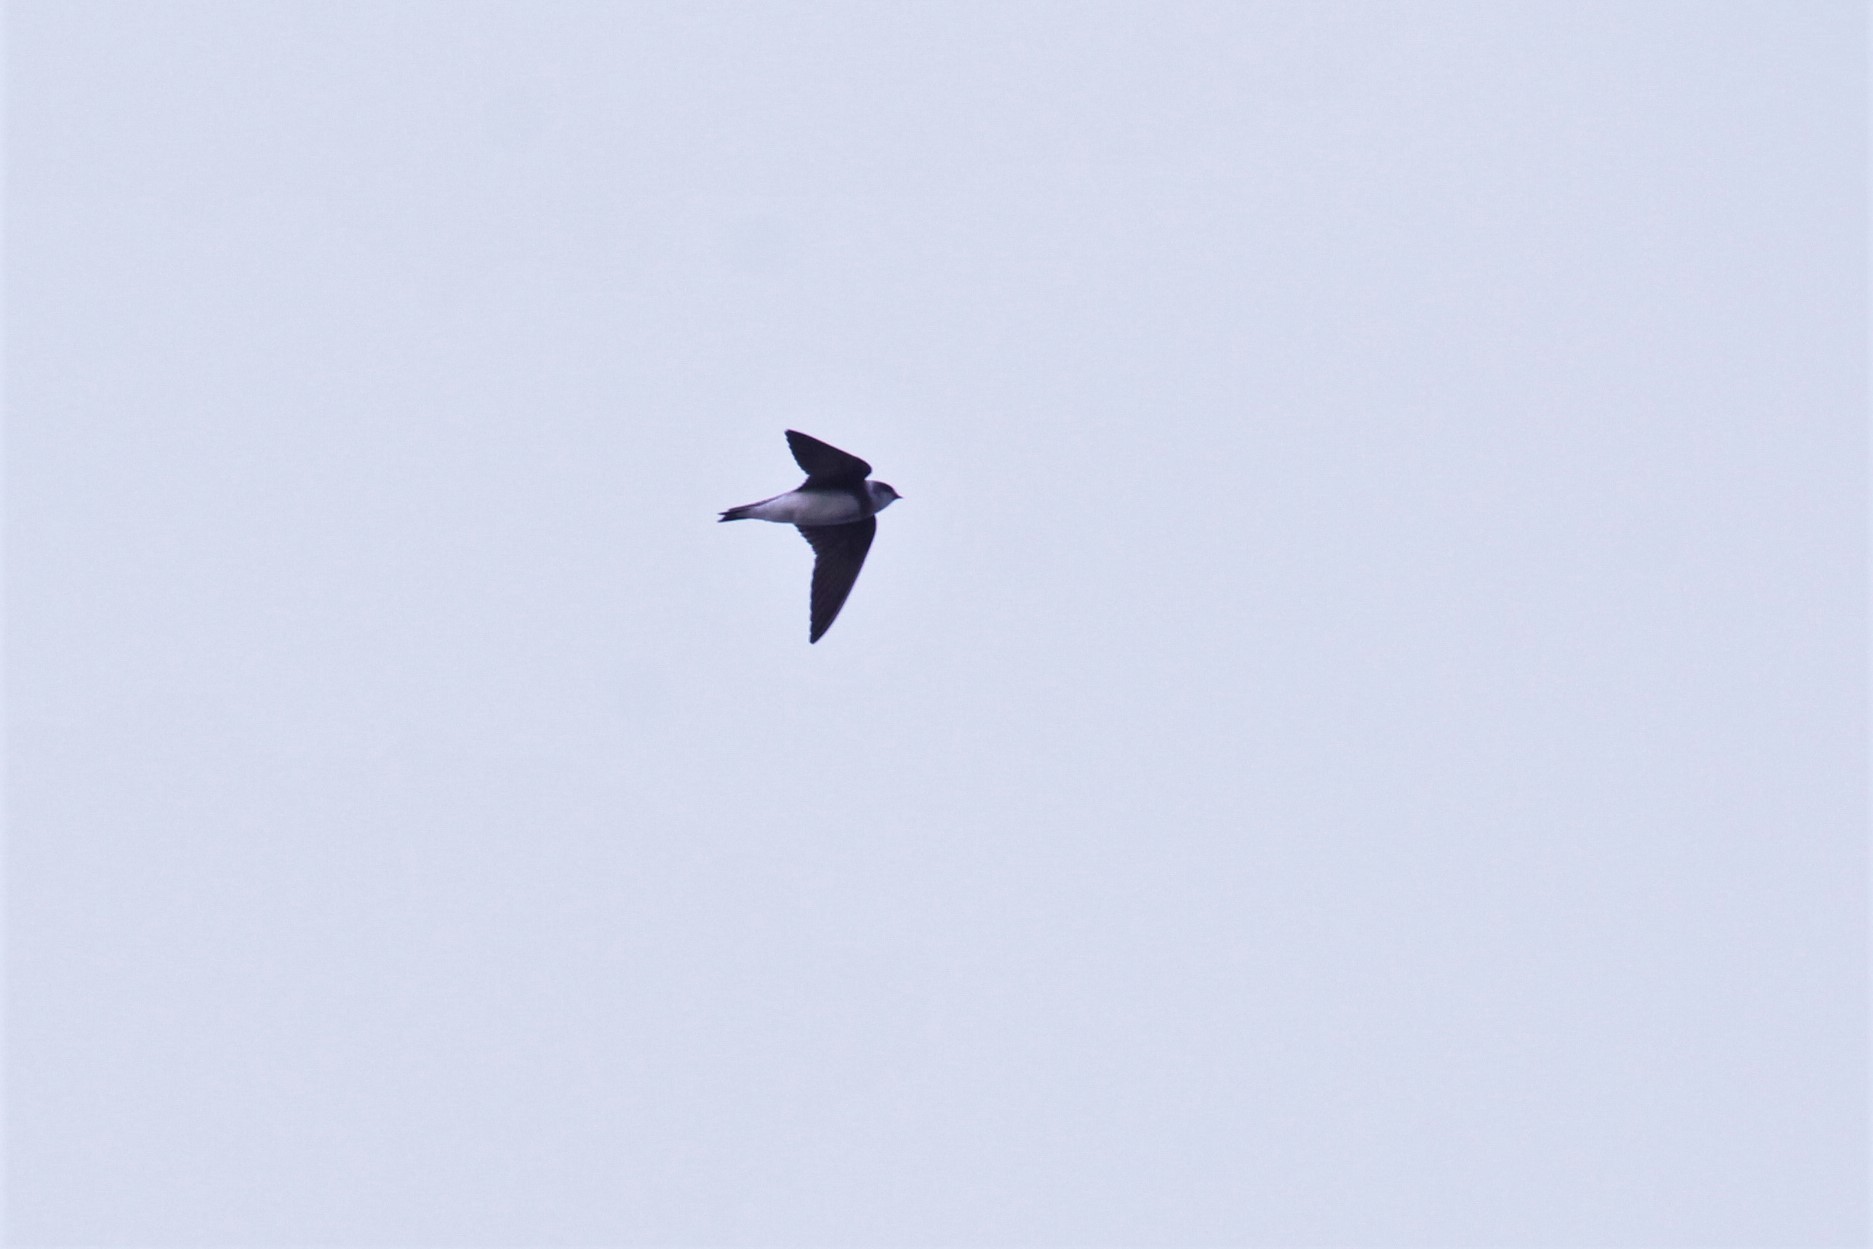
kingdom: Animalia
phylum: Chordata
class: Aves
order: Passeriformes
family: Hirundinidae
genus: Riparia
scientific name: Riparia riparia
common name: Sand martin
